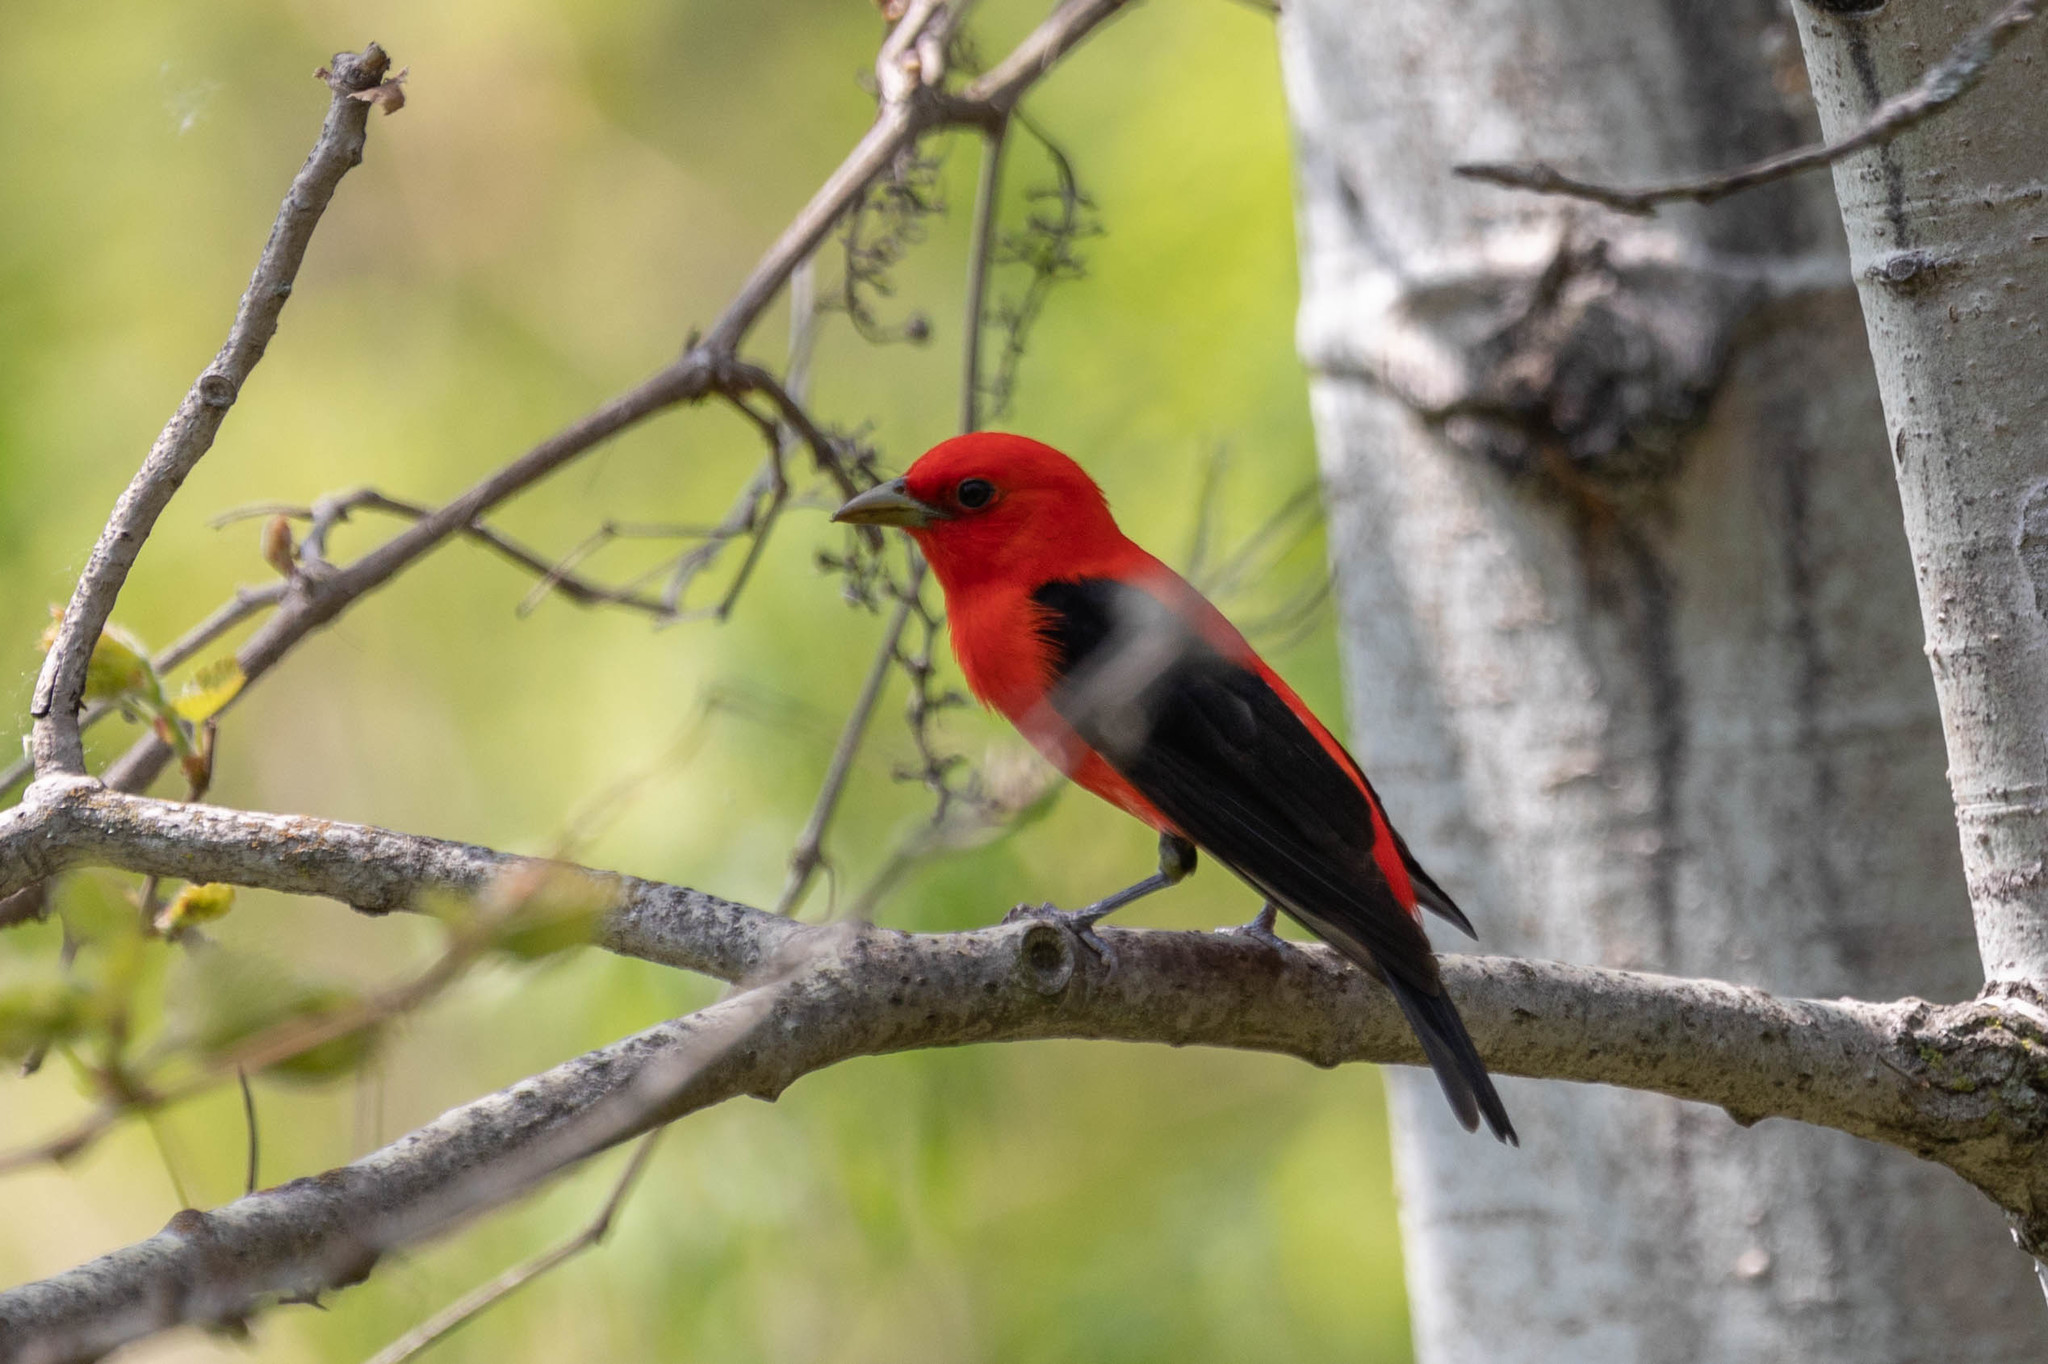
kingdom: Animalia
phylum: Chordata
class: Aves
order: Passeriformes
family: Cardinalidae
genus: Piranga
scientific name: Piranga olivacea
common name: Scarlet tanager
